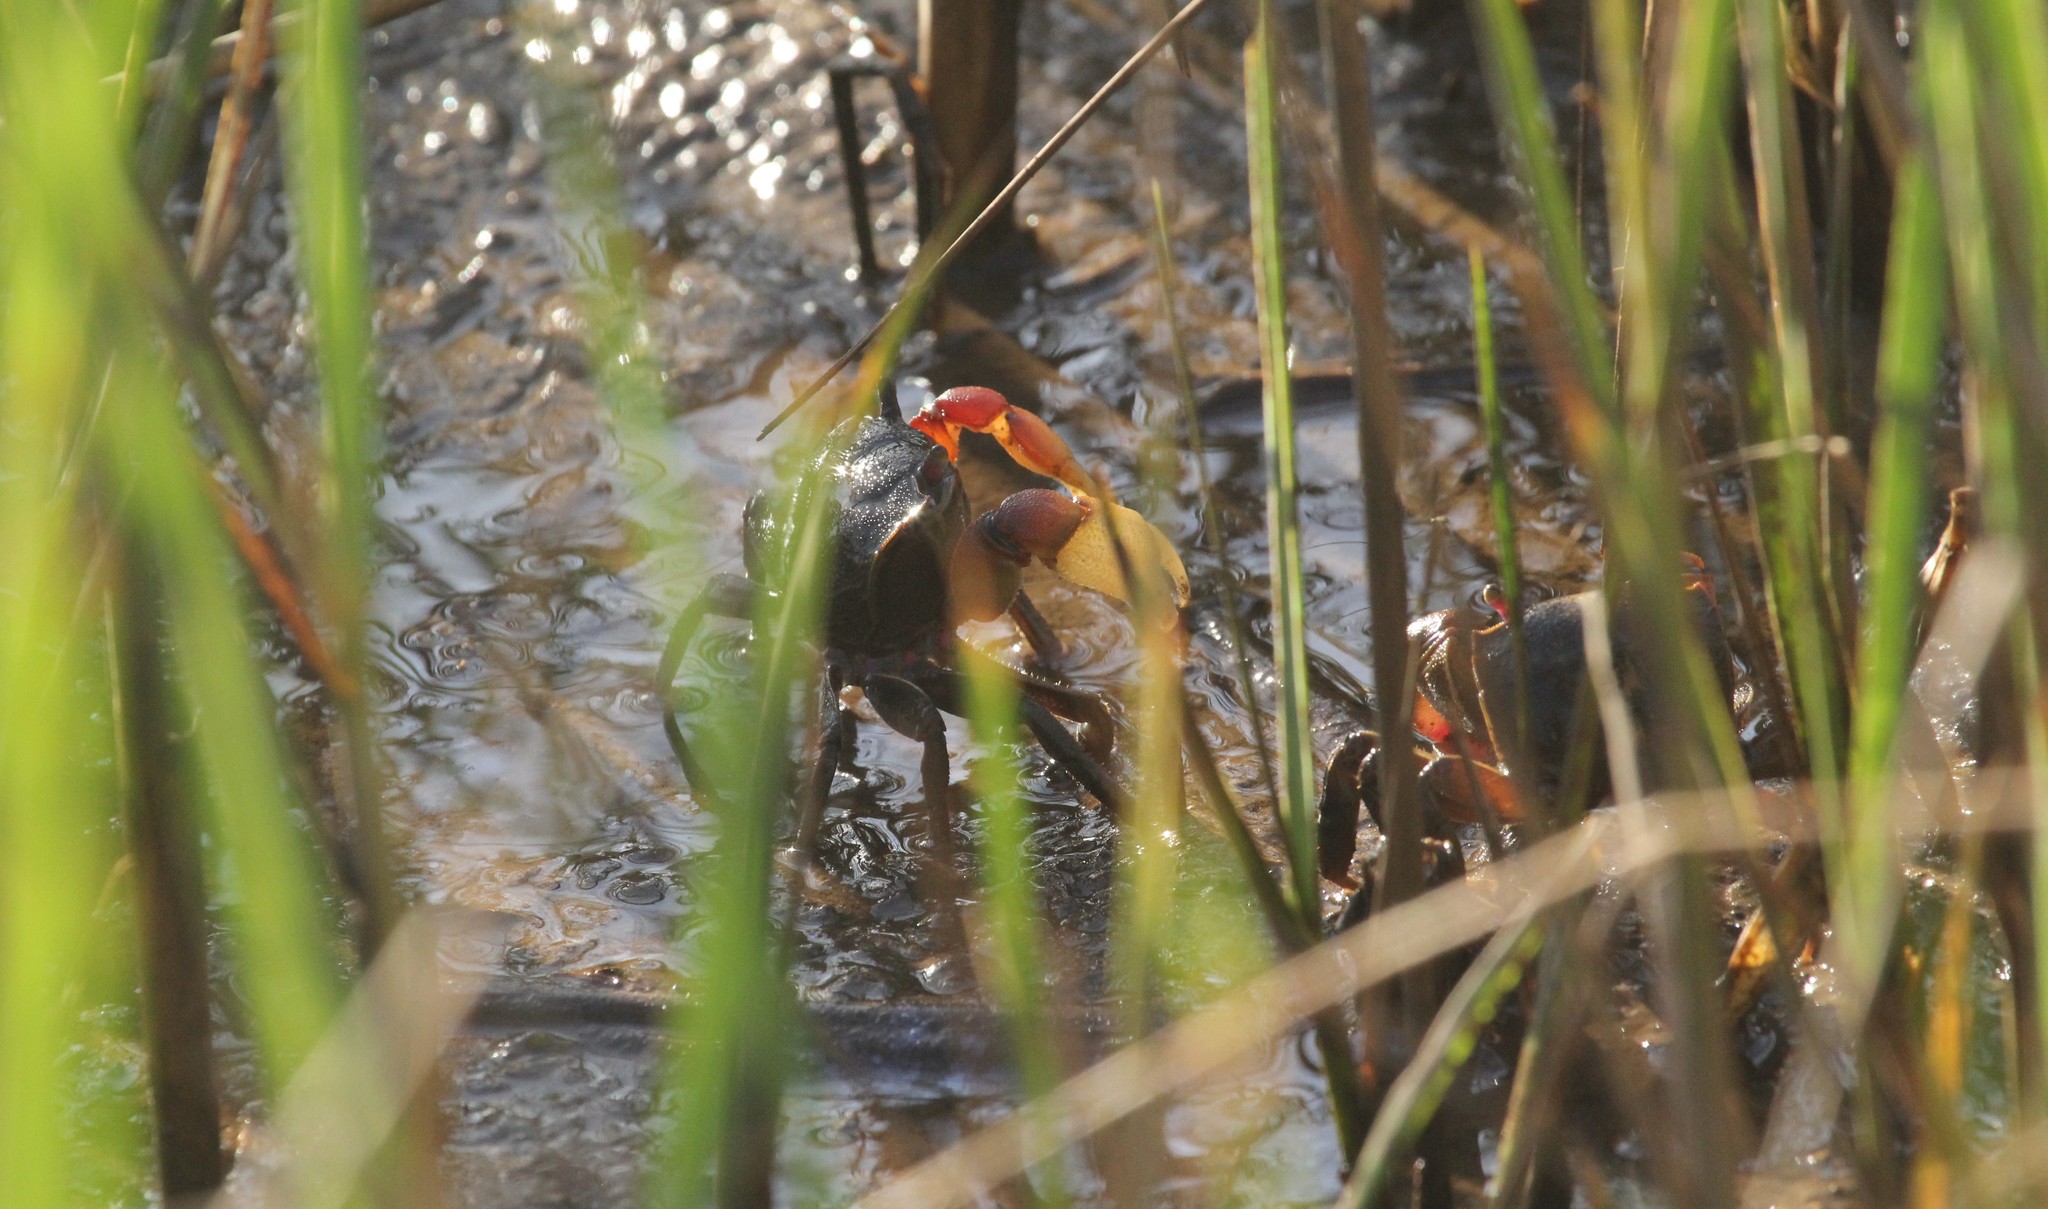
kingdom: Animalia
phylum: Arthropoda
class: Malacostraca
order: Decapoda
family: Varunidae
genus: Neohelice
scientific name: Neohelice granulata
